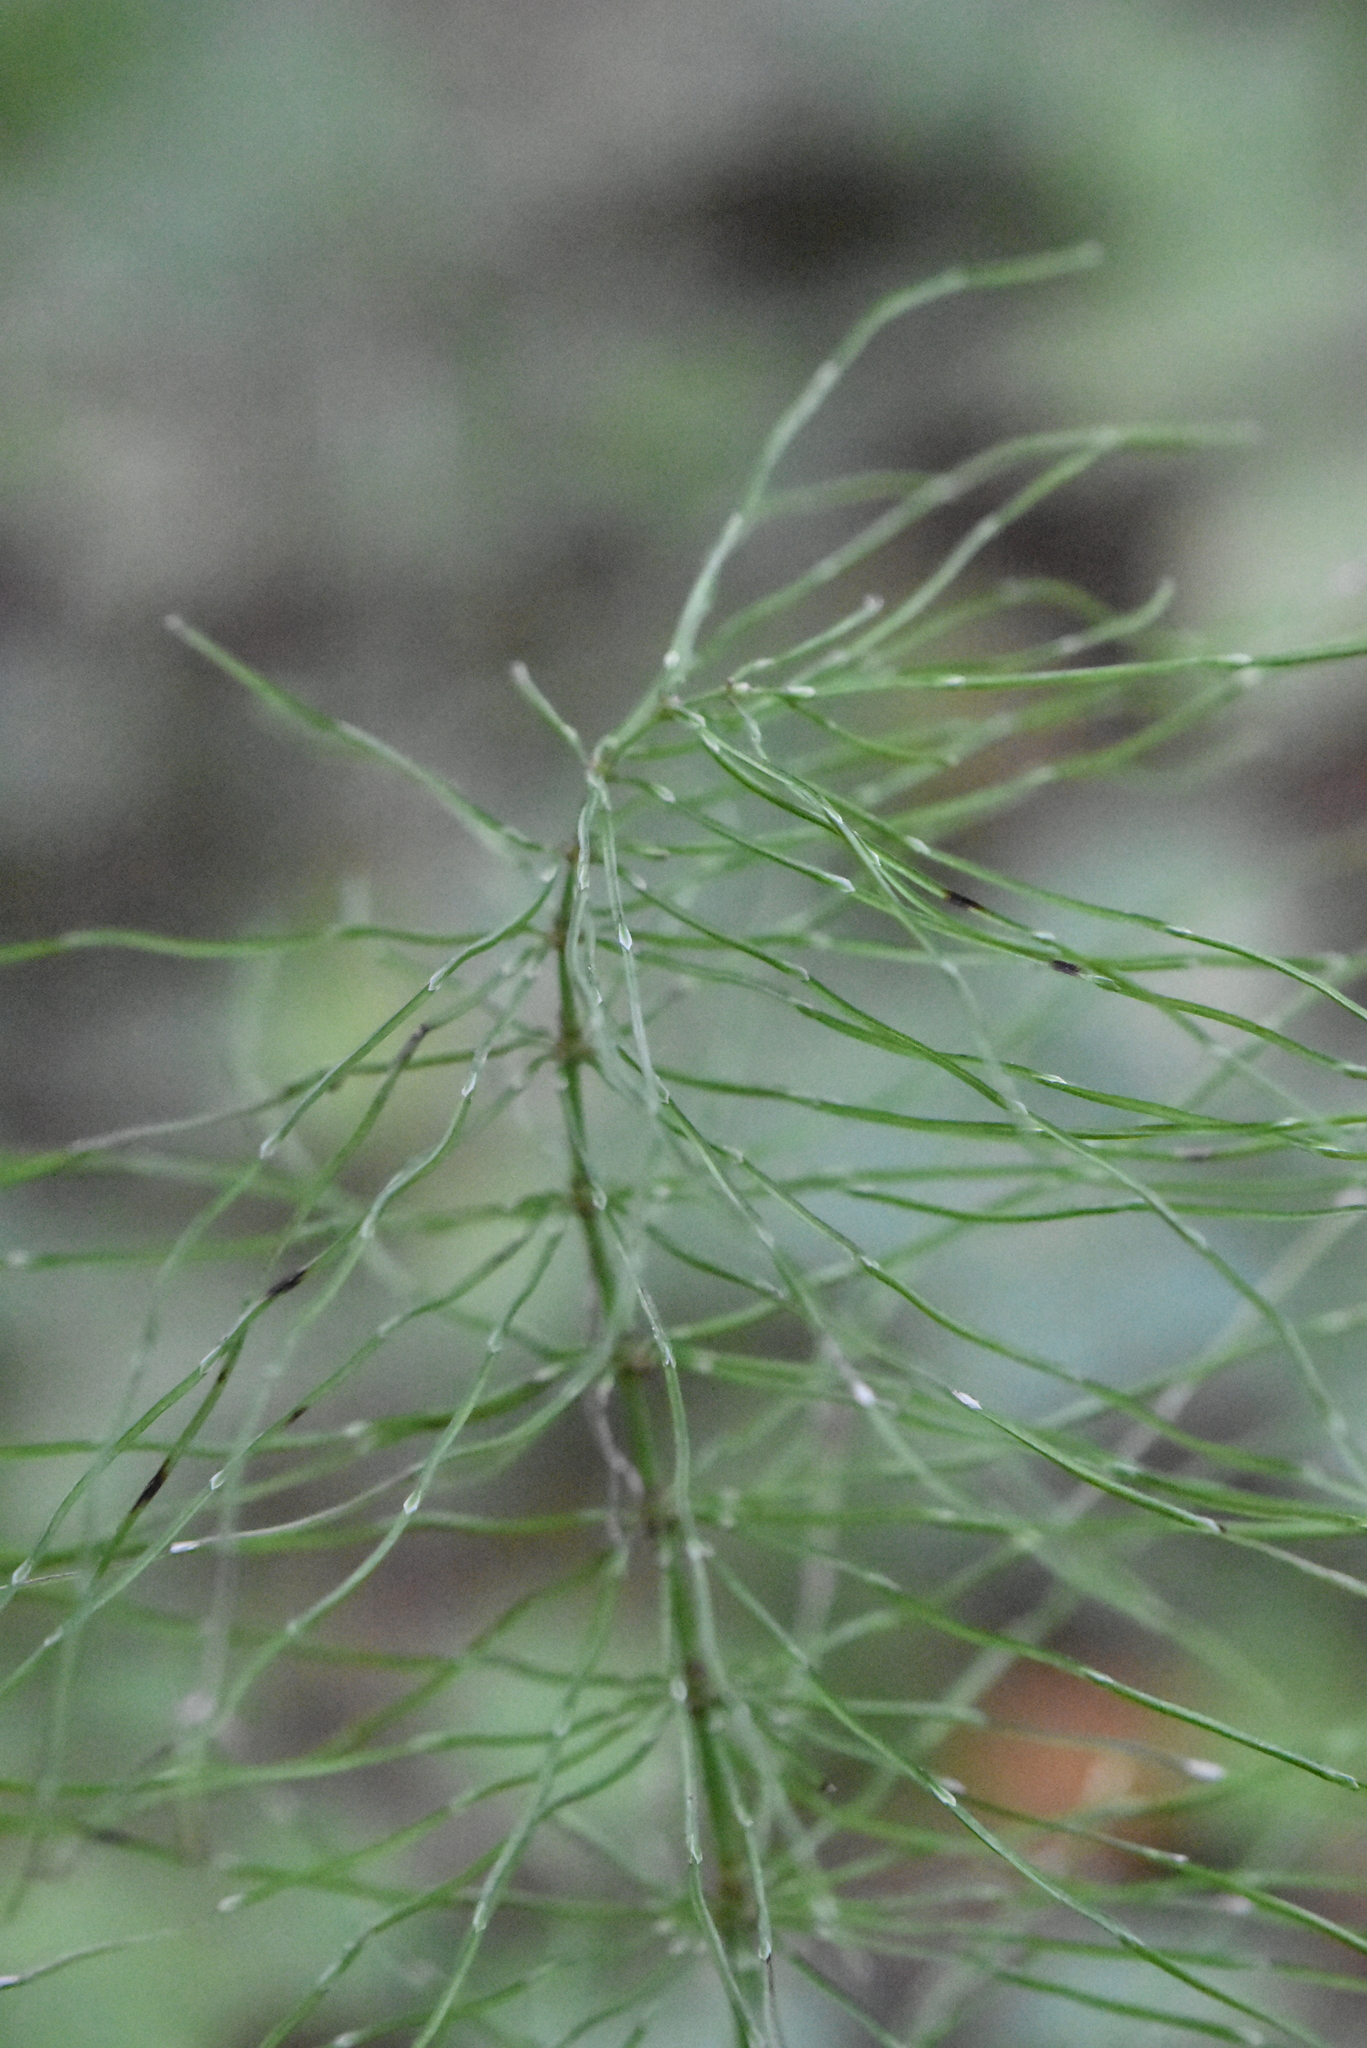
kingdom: Plantae
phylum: Tracheophyta
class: Polypodiopsida
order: Equisetales
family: Equisetaceae
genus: Equisetum
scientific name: Equisetum pratense
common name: Meadow horsetail
